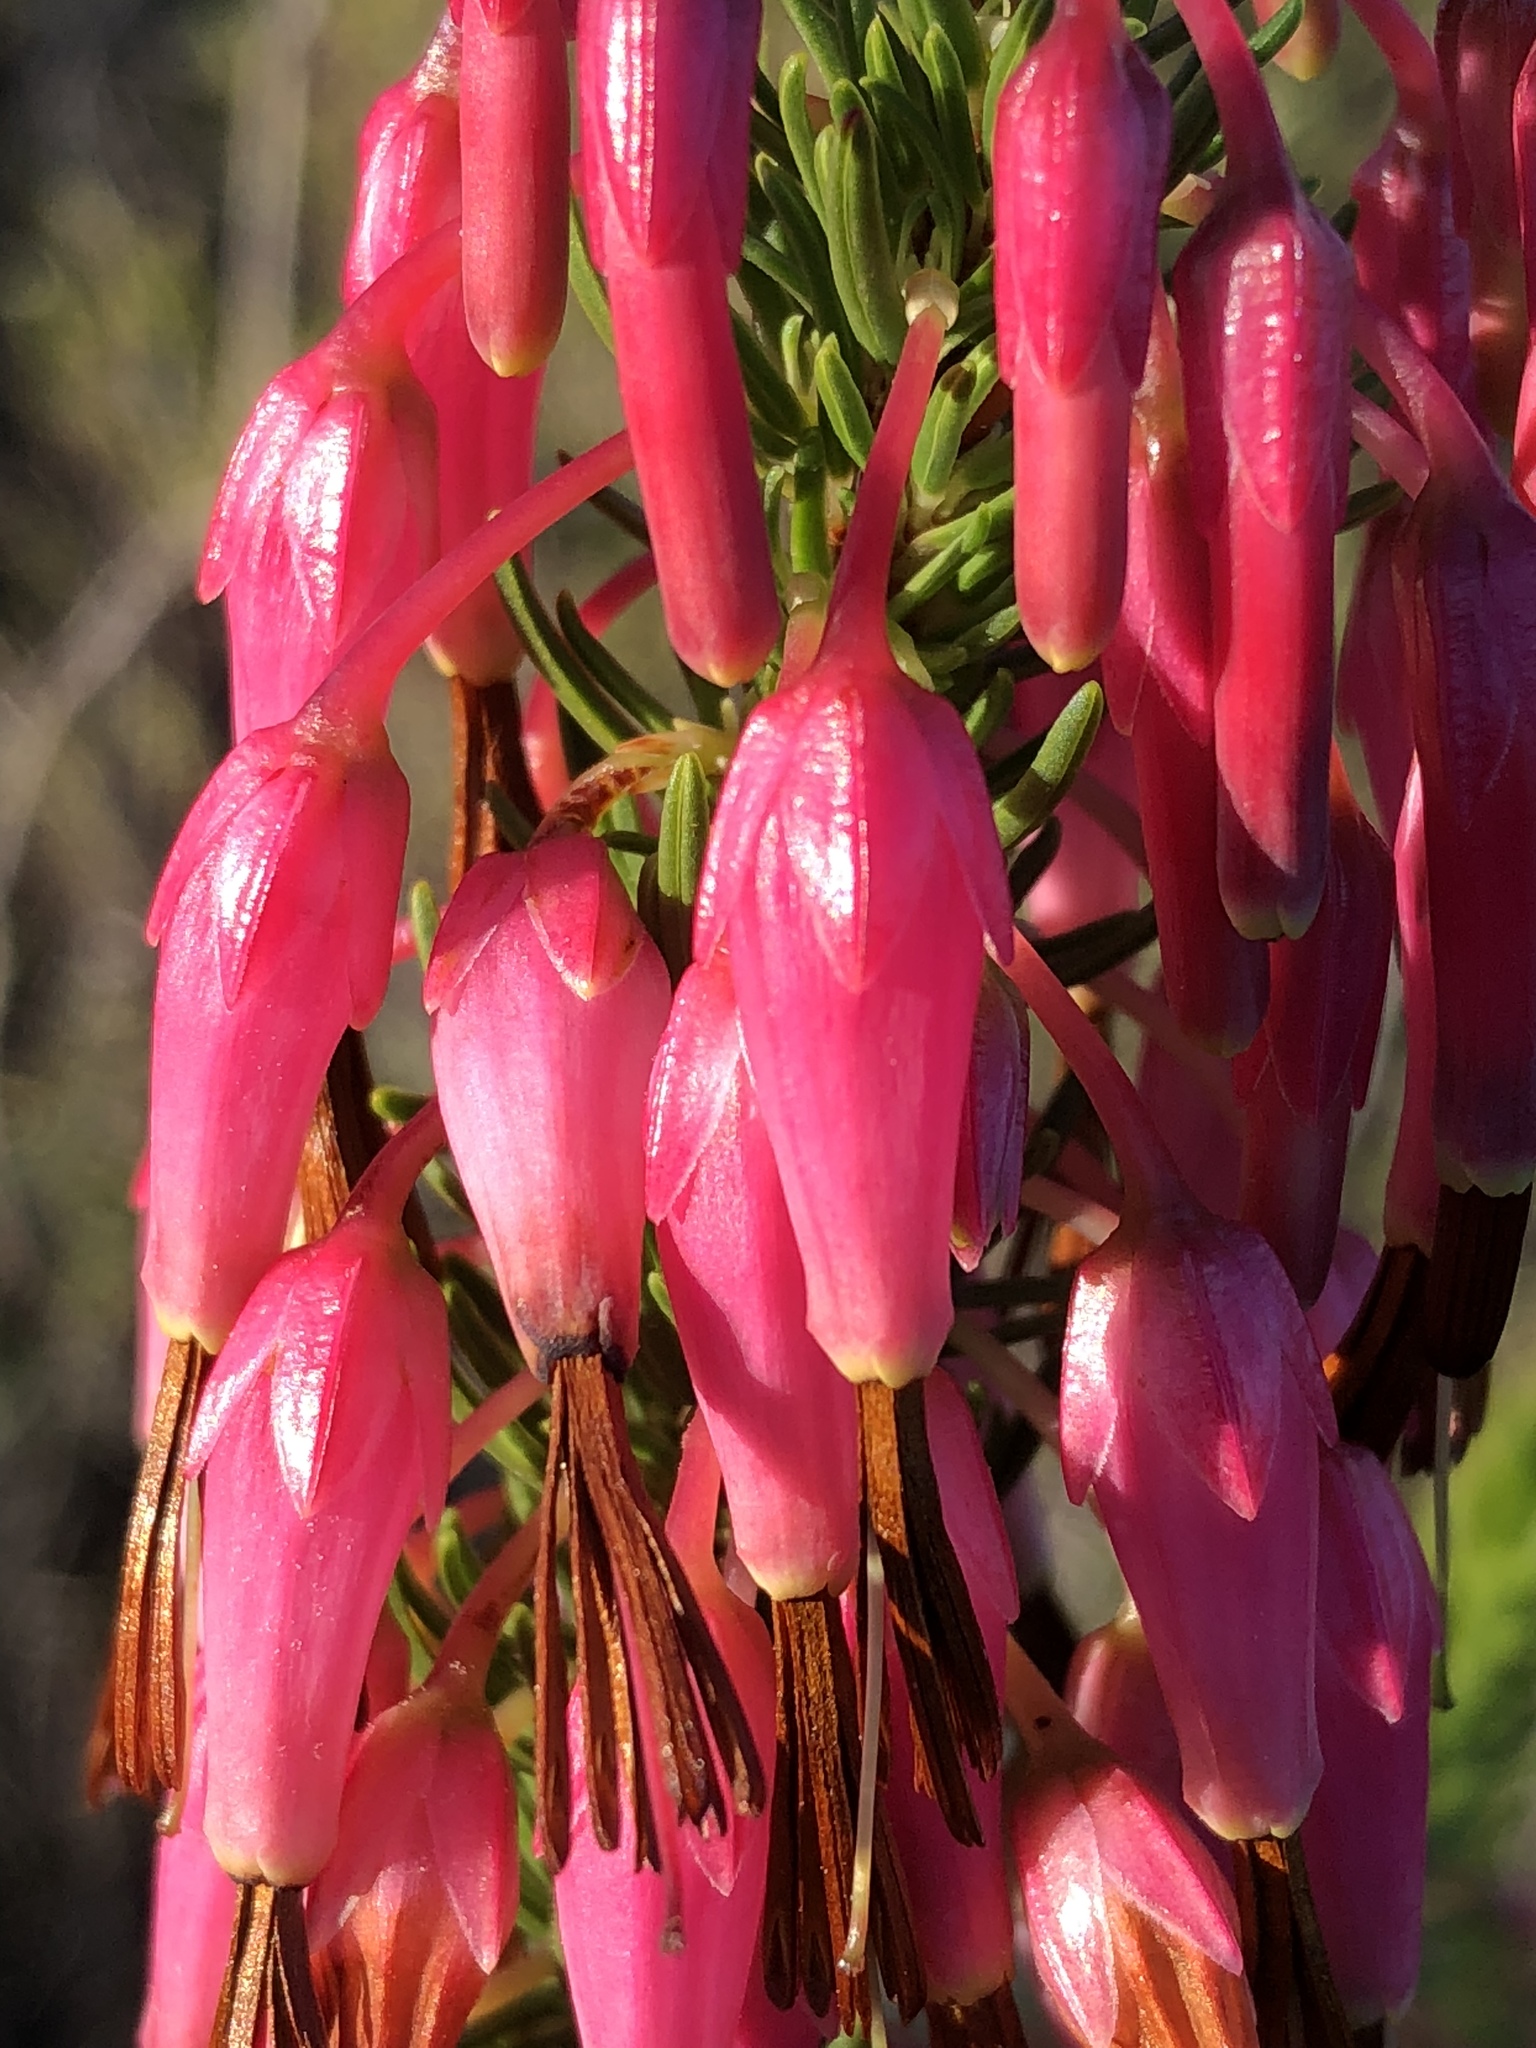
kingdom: Plantae
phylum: Tracheophyta
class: Magnoliopsida
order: Ericales
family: Ericaceae
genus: Erica
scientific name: Erica plukenetii
